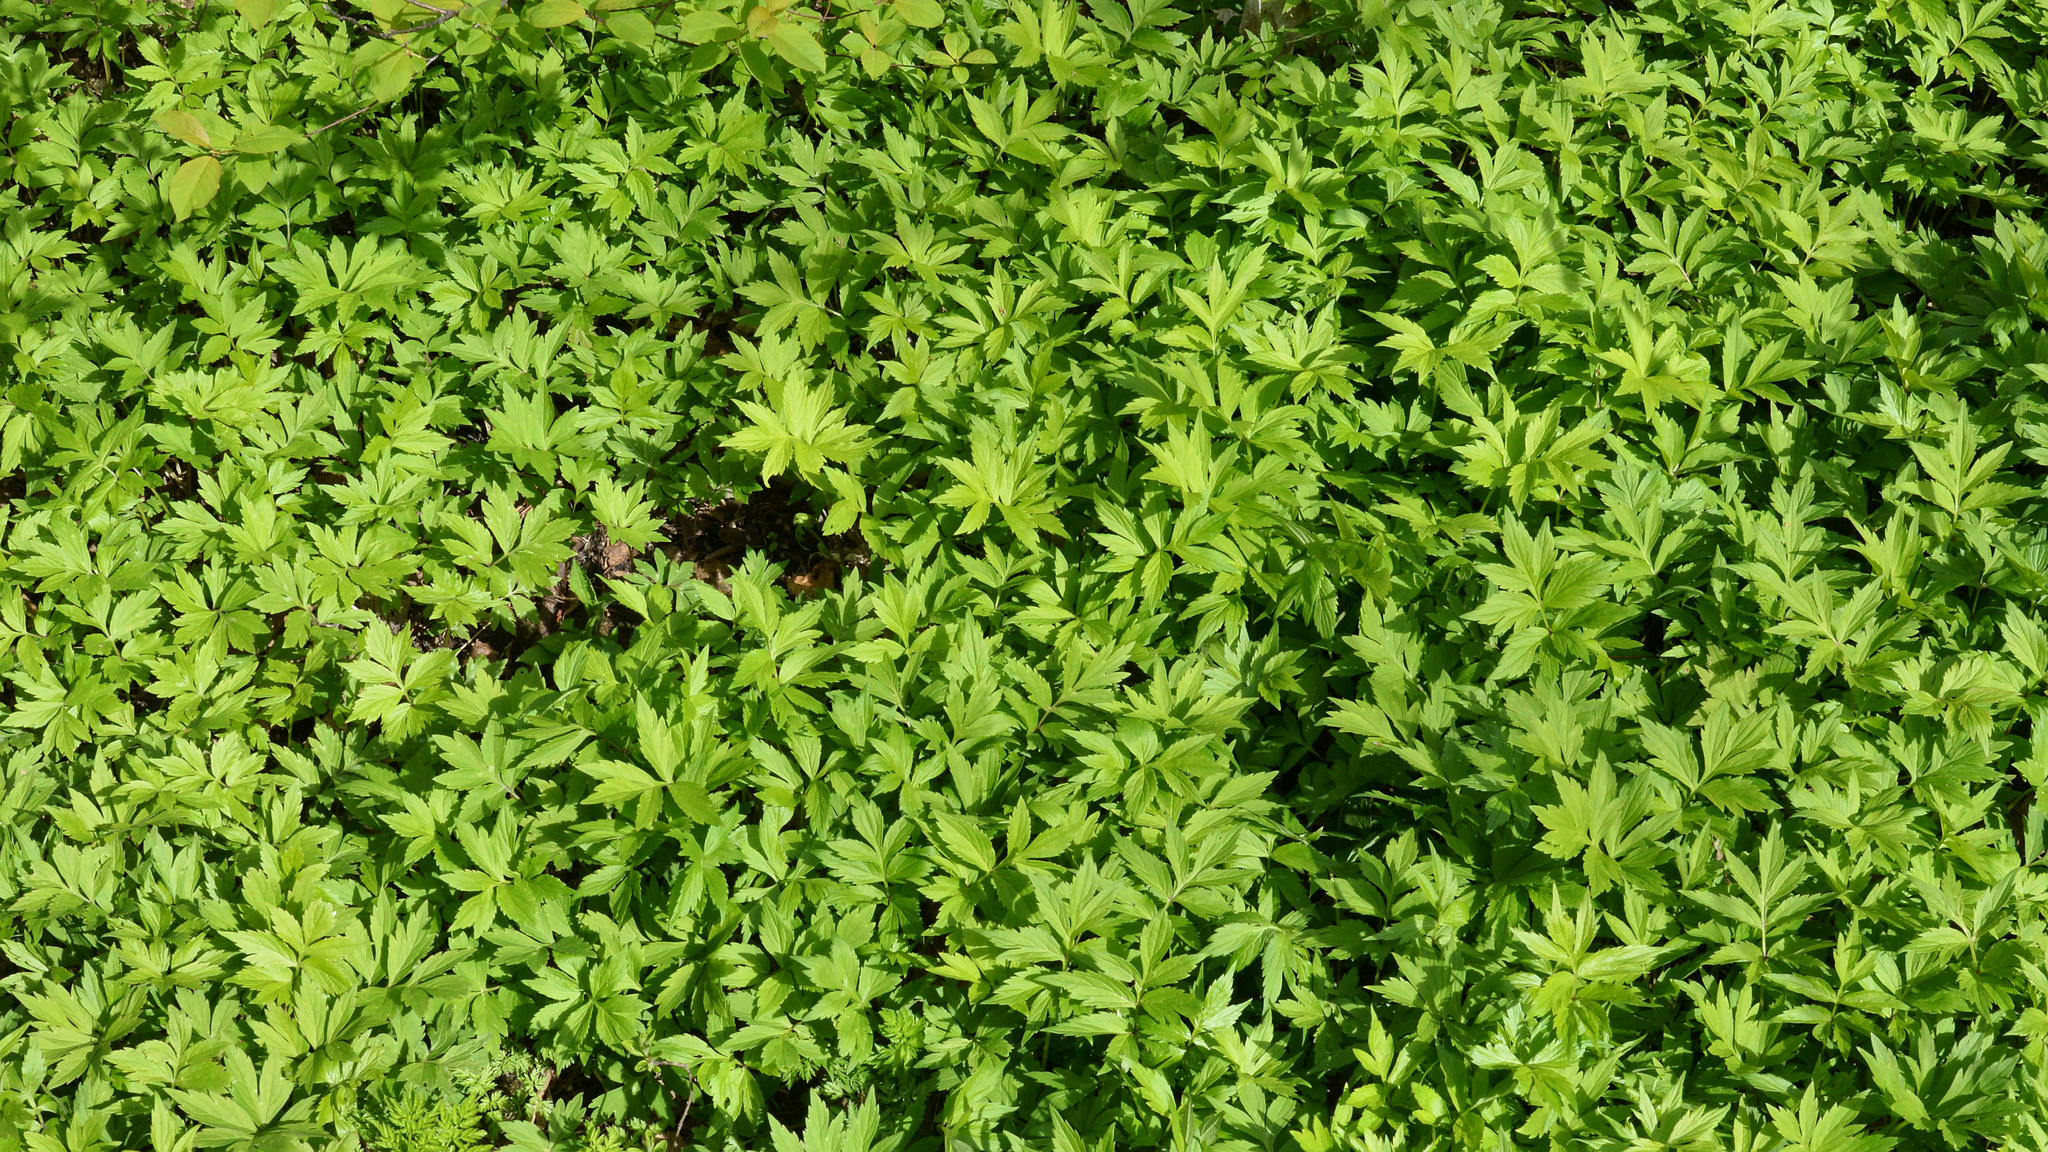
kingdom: Plantae
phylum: Tracheophyta
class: Magnoliopsida
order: Boraginales
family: Hydrophyllaceae
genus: Hydrophyllum
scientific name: Hydrophyllum virginianum
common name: Virginia waterleaf
